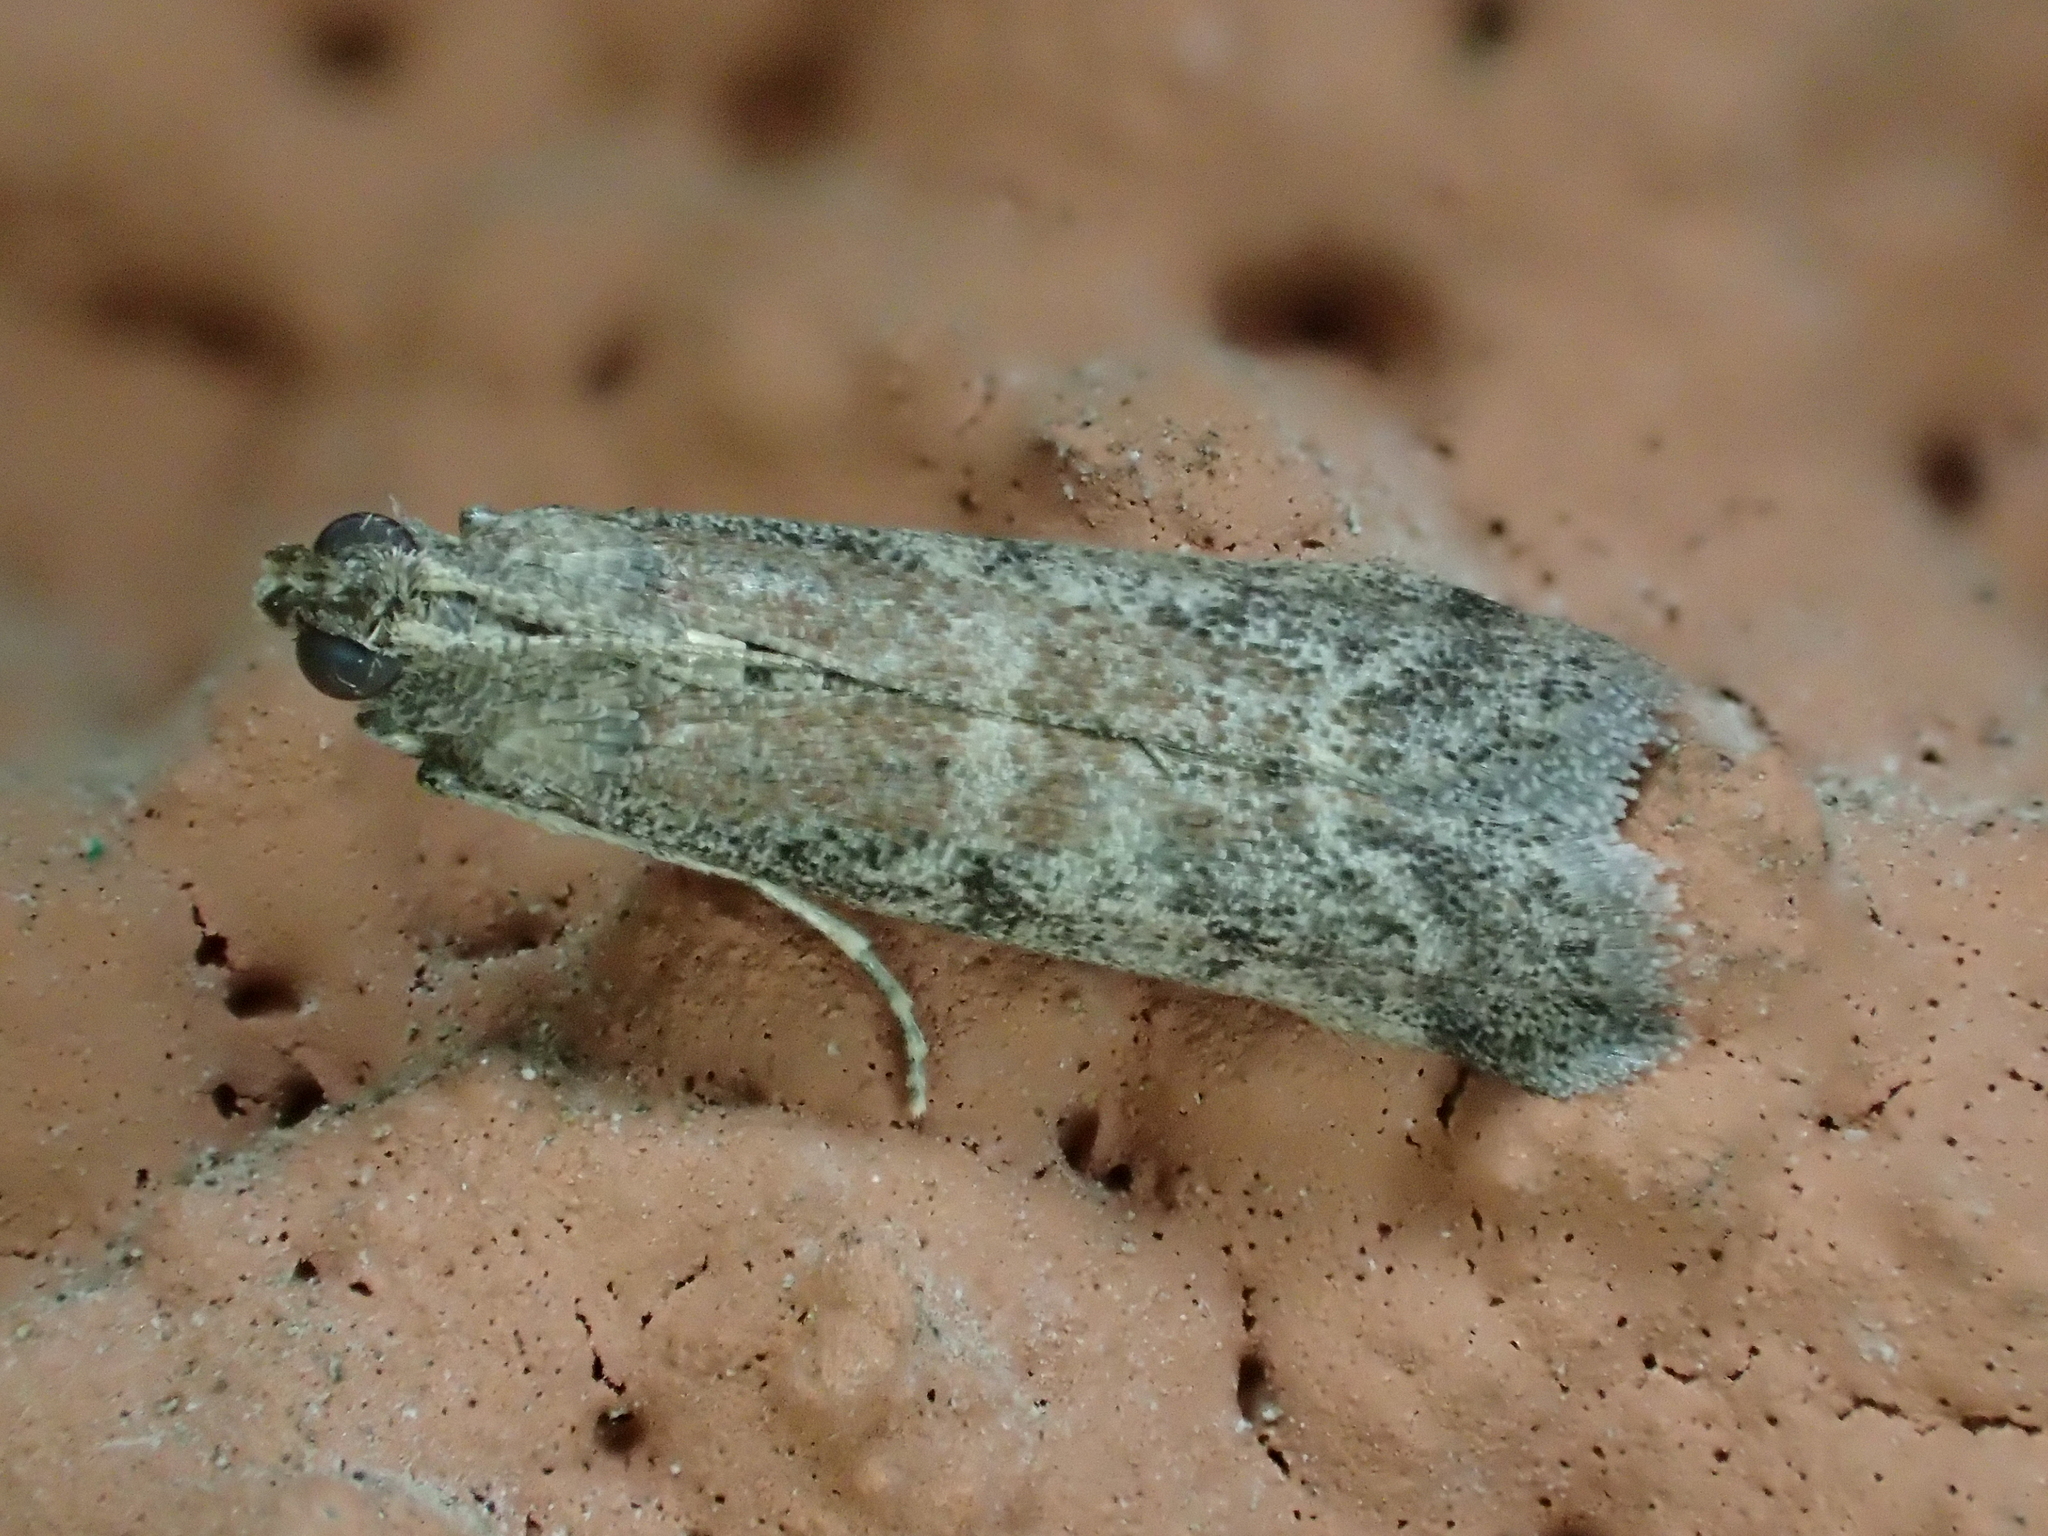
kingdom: Animalia
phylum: Arthropoda
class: Insecta
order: Lepidoptera
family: Pyralidae
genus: Ephestia
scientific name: Ephestia woodiella
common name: False cacao moth
